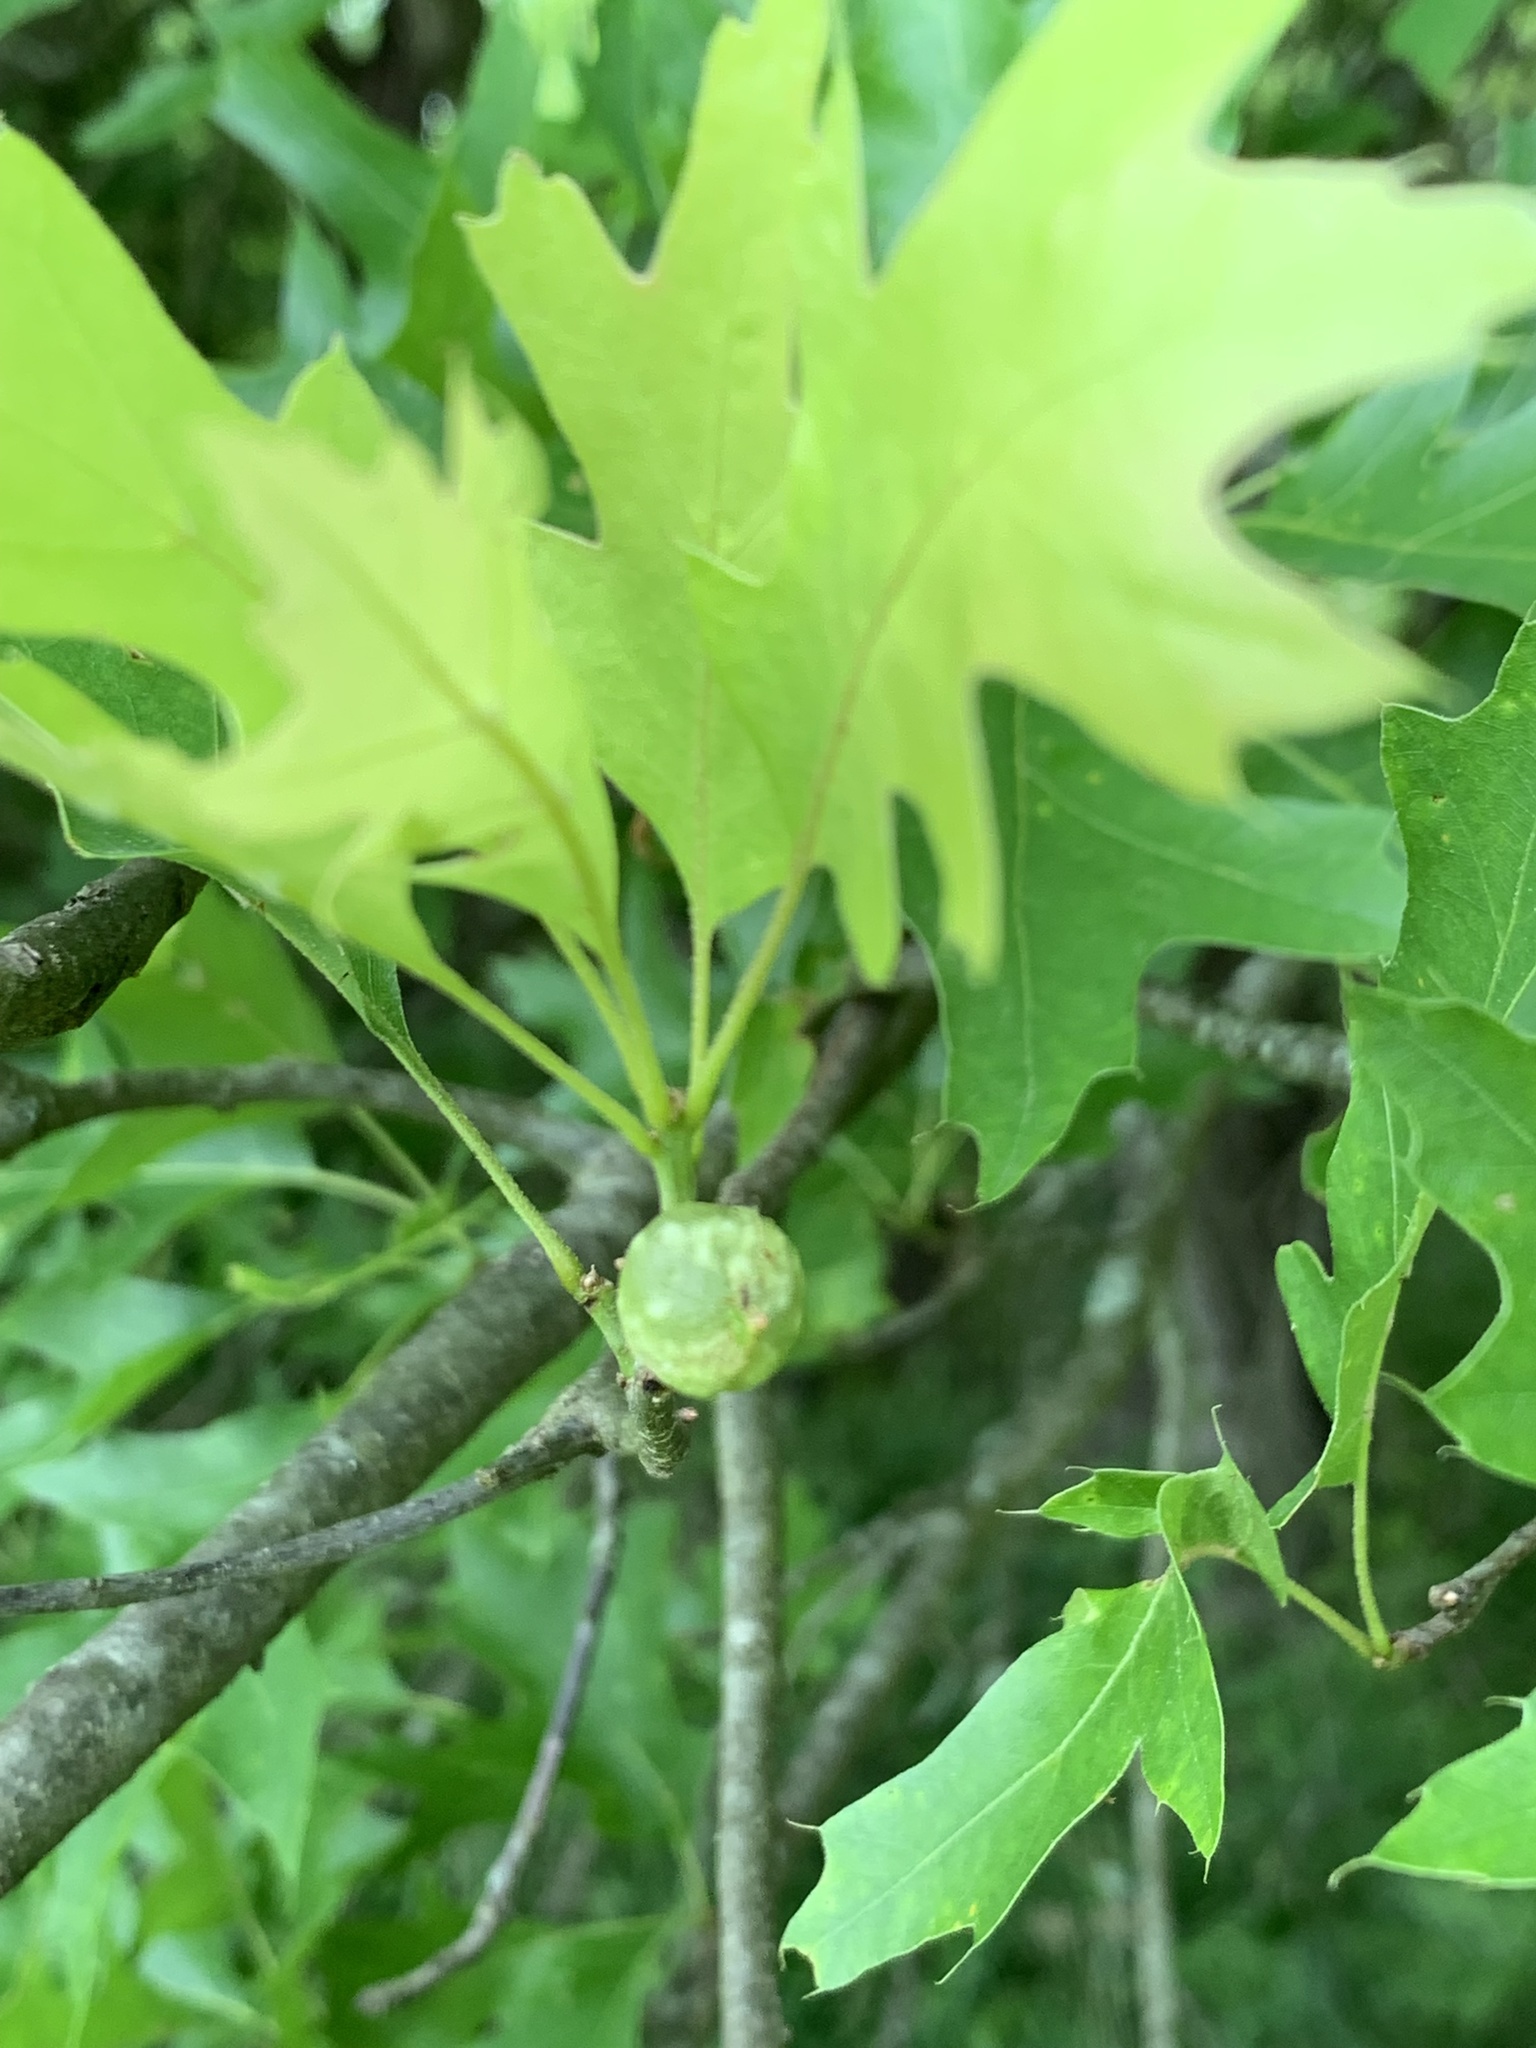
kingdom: Animalia
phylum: Arthropoda
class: Insecta
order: Hymenoptera
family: Cynipidae
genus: Dryocosmus
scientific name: Dryocosmus quercuspalustris
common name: Succulent oak gall wasp
